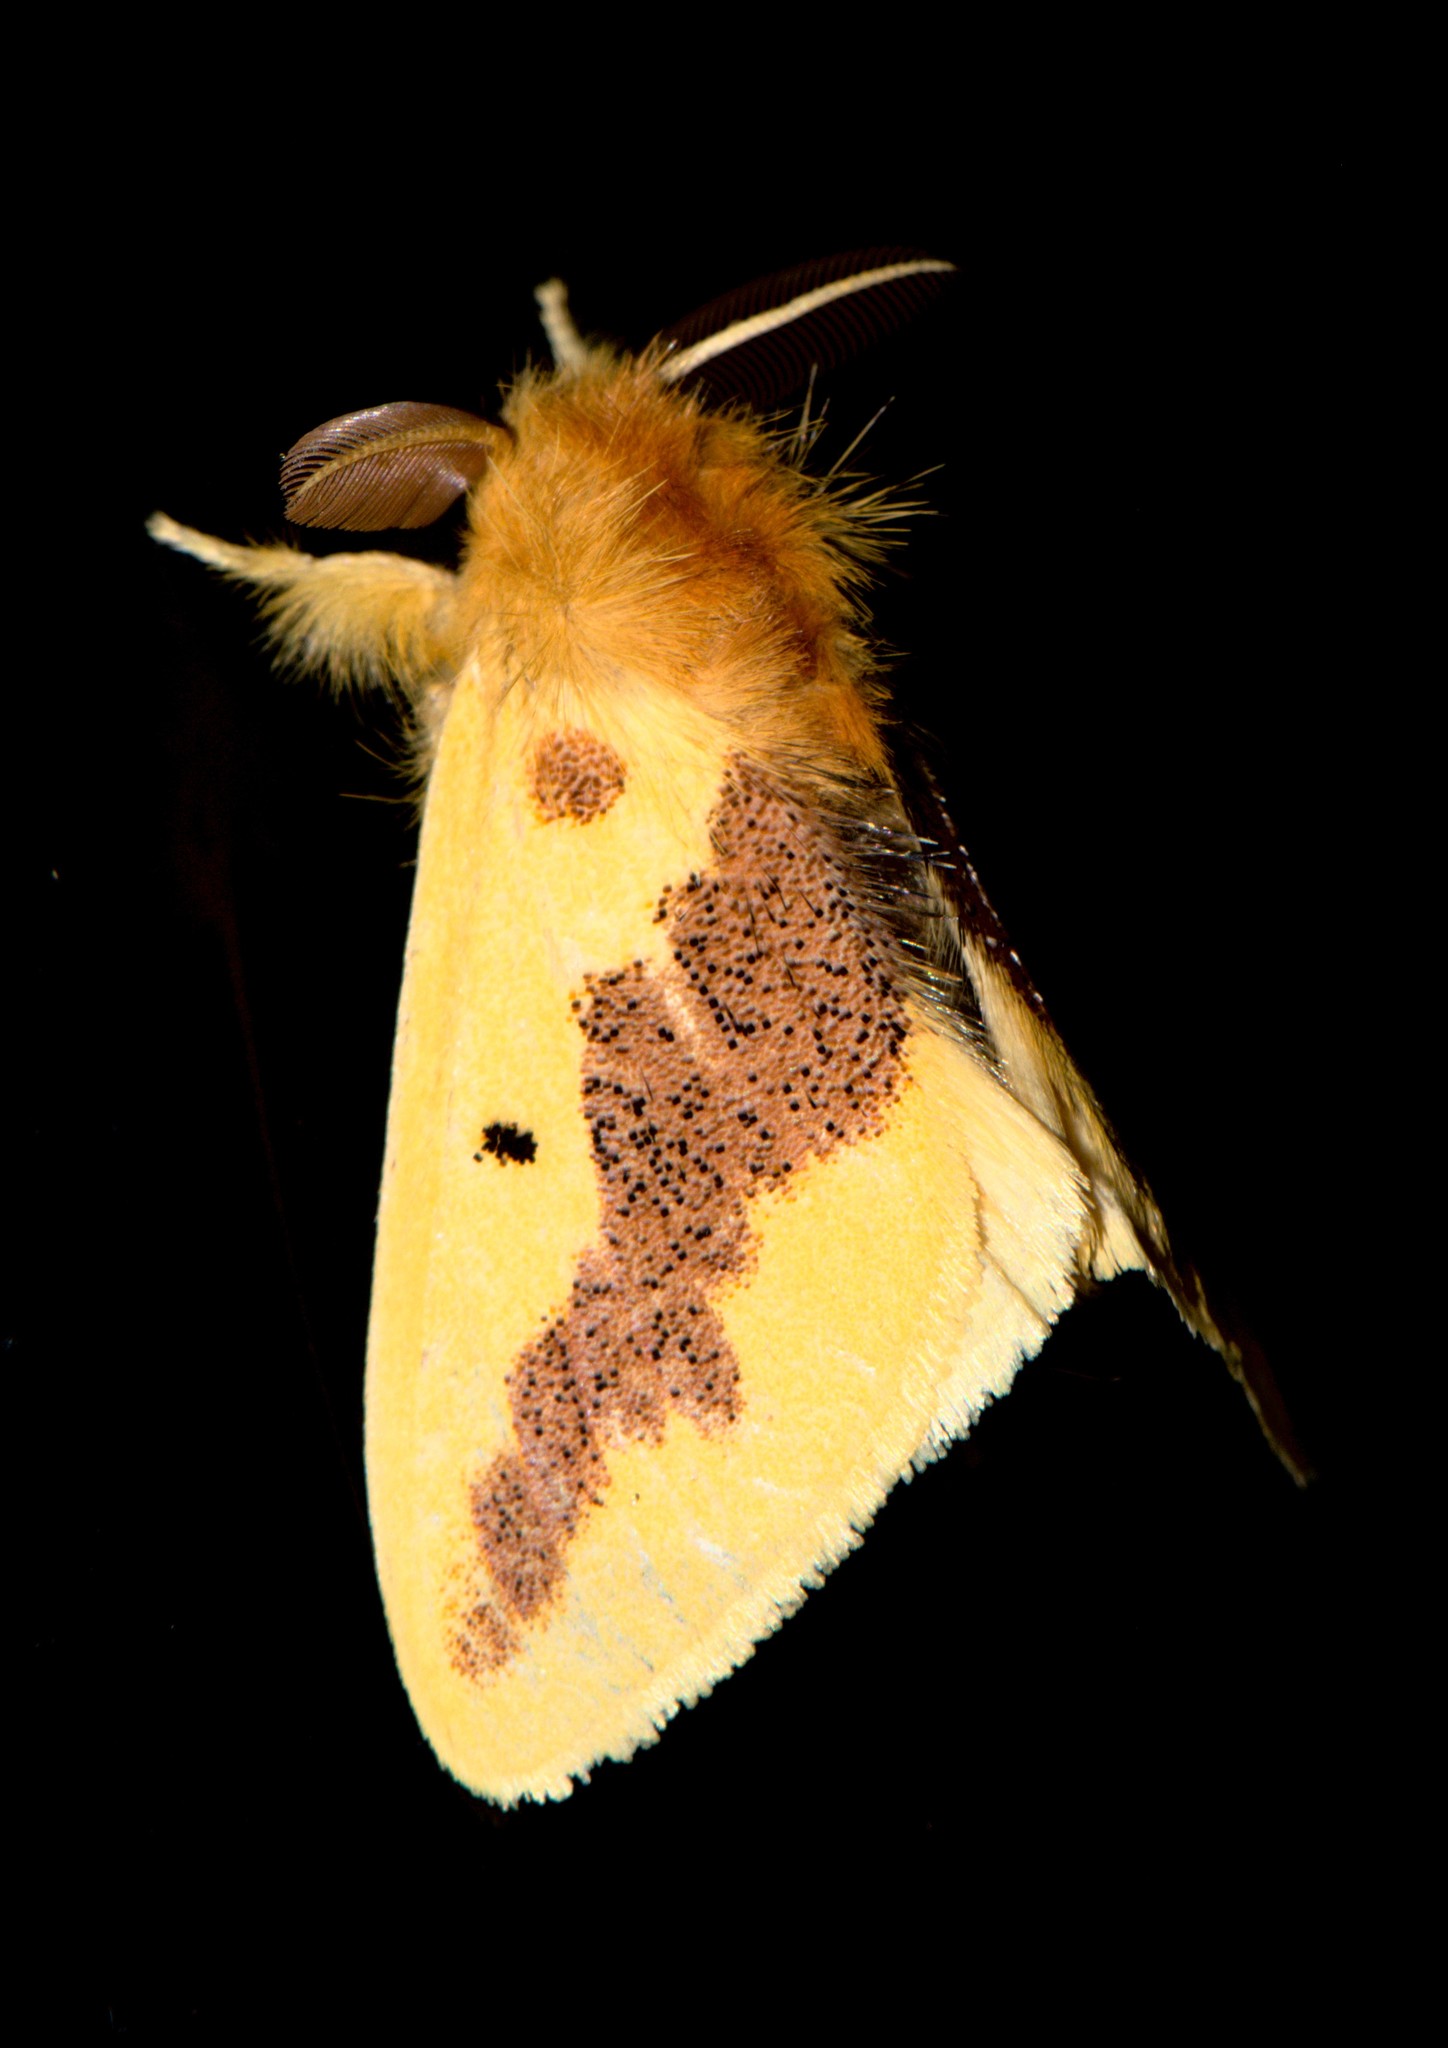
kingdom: Animalia
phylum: Arthropoda
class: Insecta
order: Lepidoptera
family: Erebidae
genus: Euproctis
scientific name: Euproctis varia
